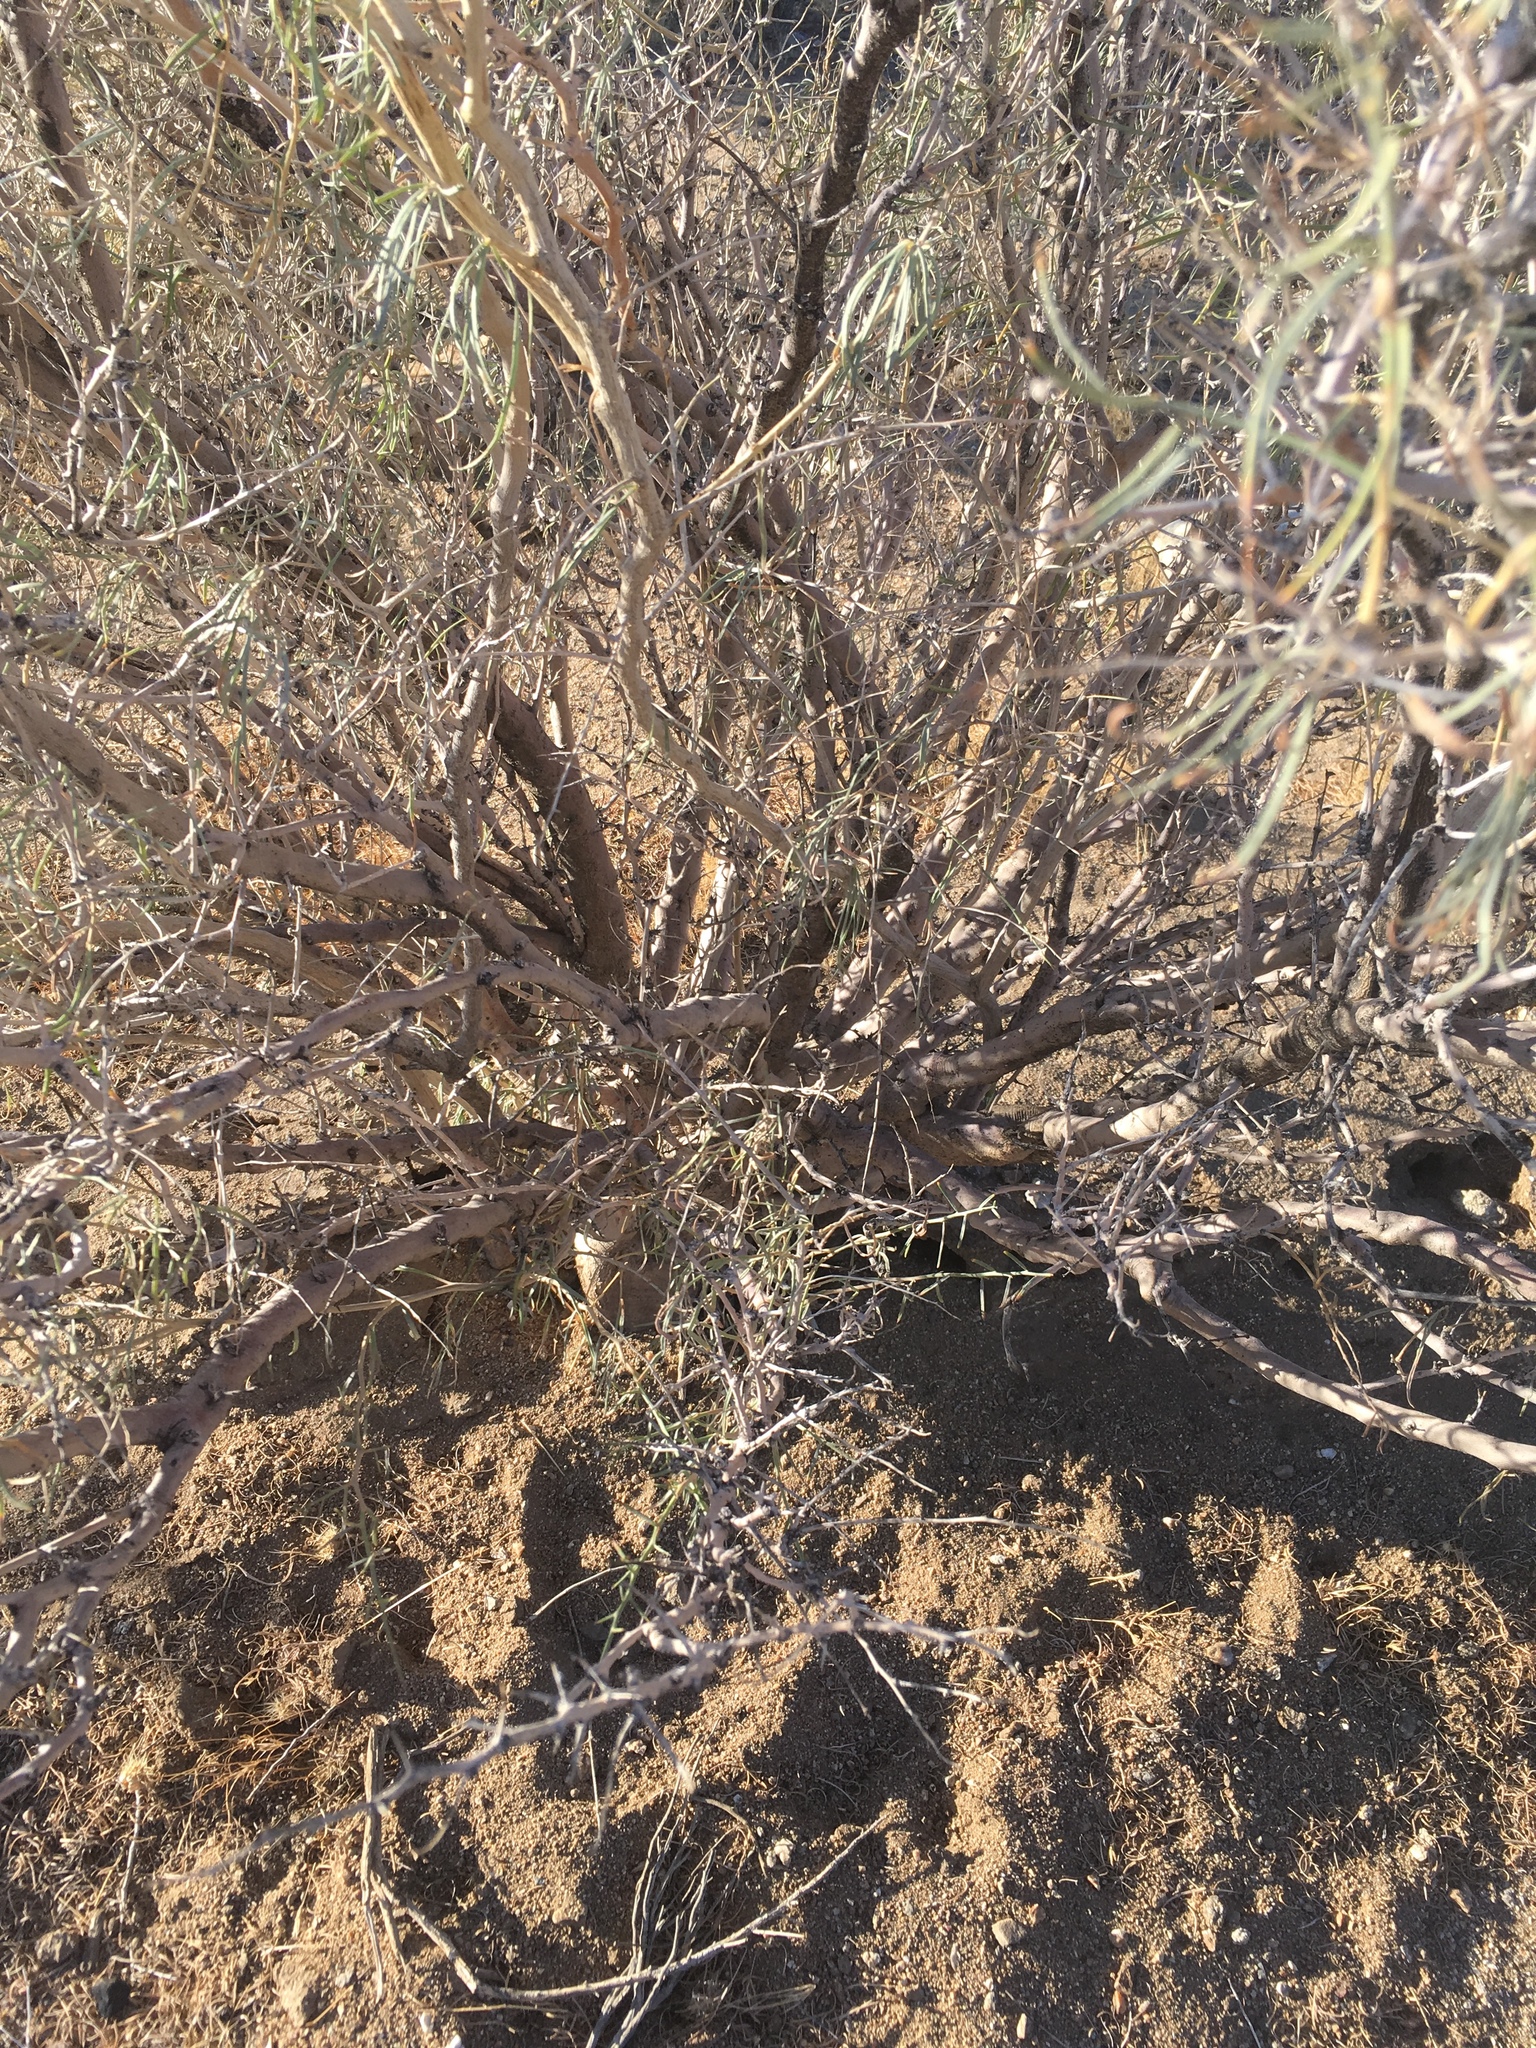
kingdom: Plantae
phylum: Tracheophyta
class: Magnoliopsida
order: Fabales
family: Fabaceae
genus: Psorothamnus
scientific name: Psorothamnus schottii
